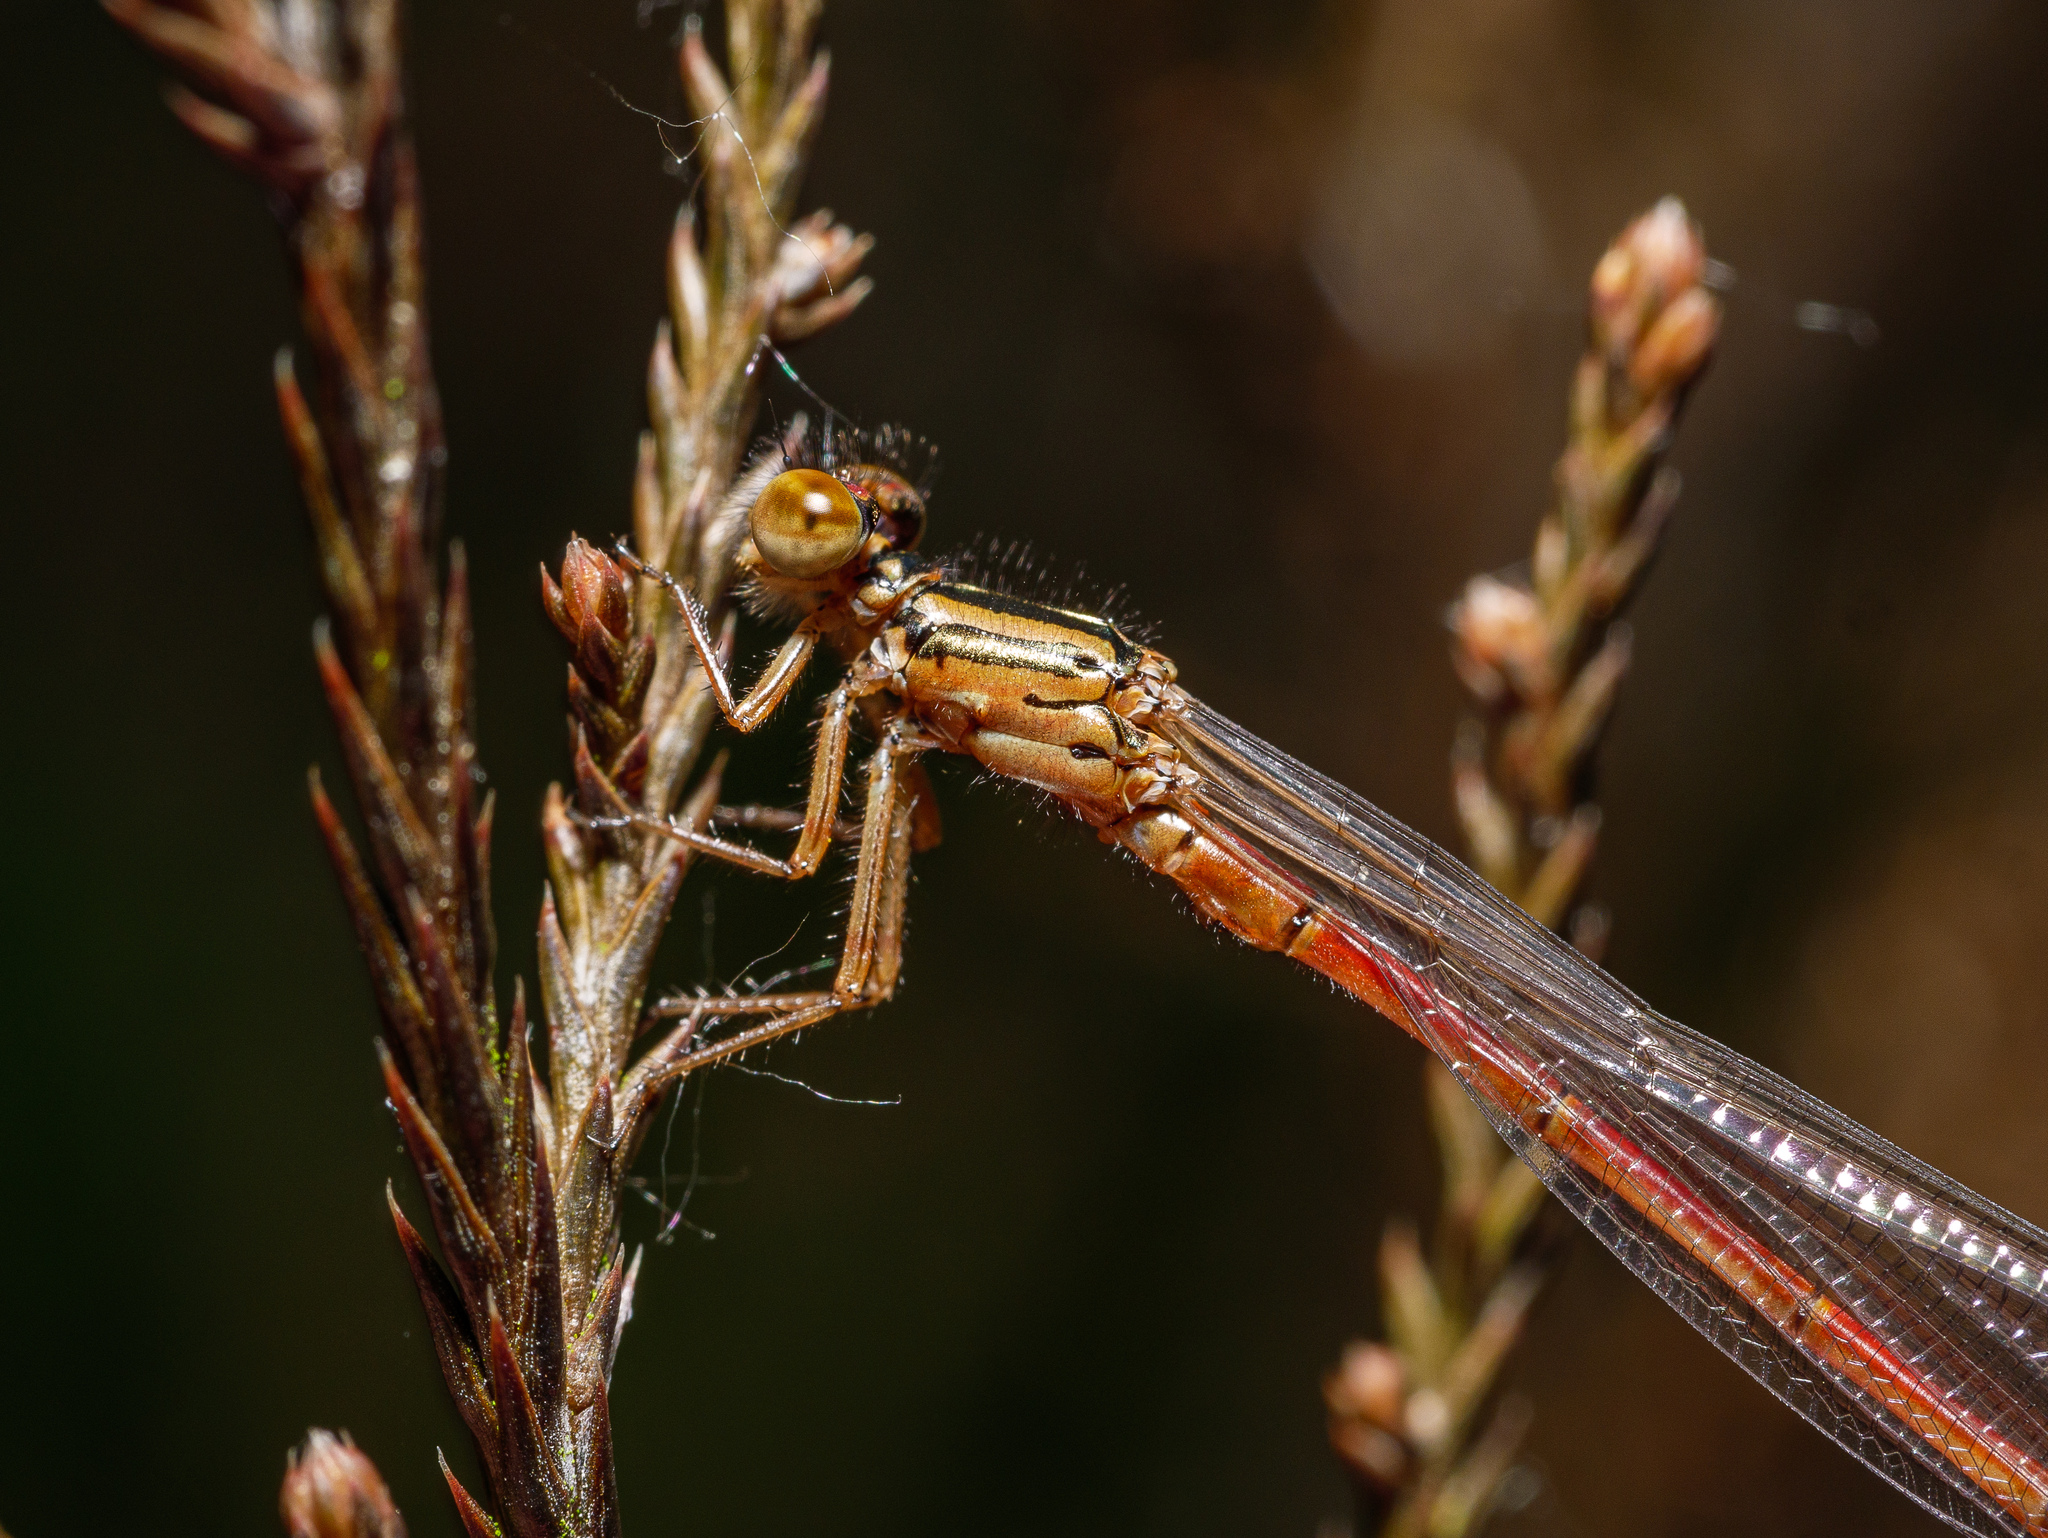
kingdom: Animalia
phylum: Arthropoda
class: Insecta
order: Odonata
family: Coenagrionidae
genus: Xanthocnemis
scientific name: Xanthocnemis zealandica
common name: Common redcoat damselfly
